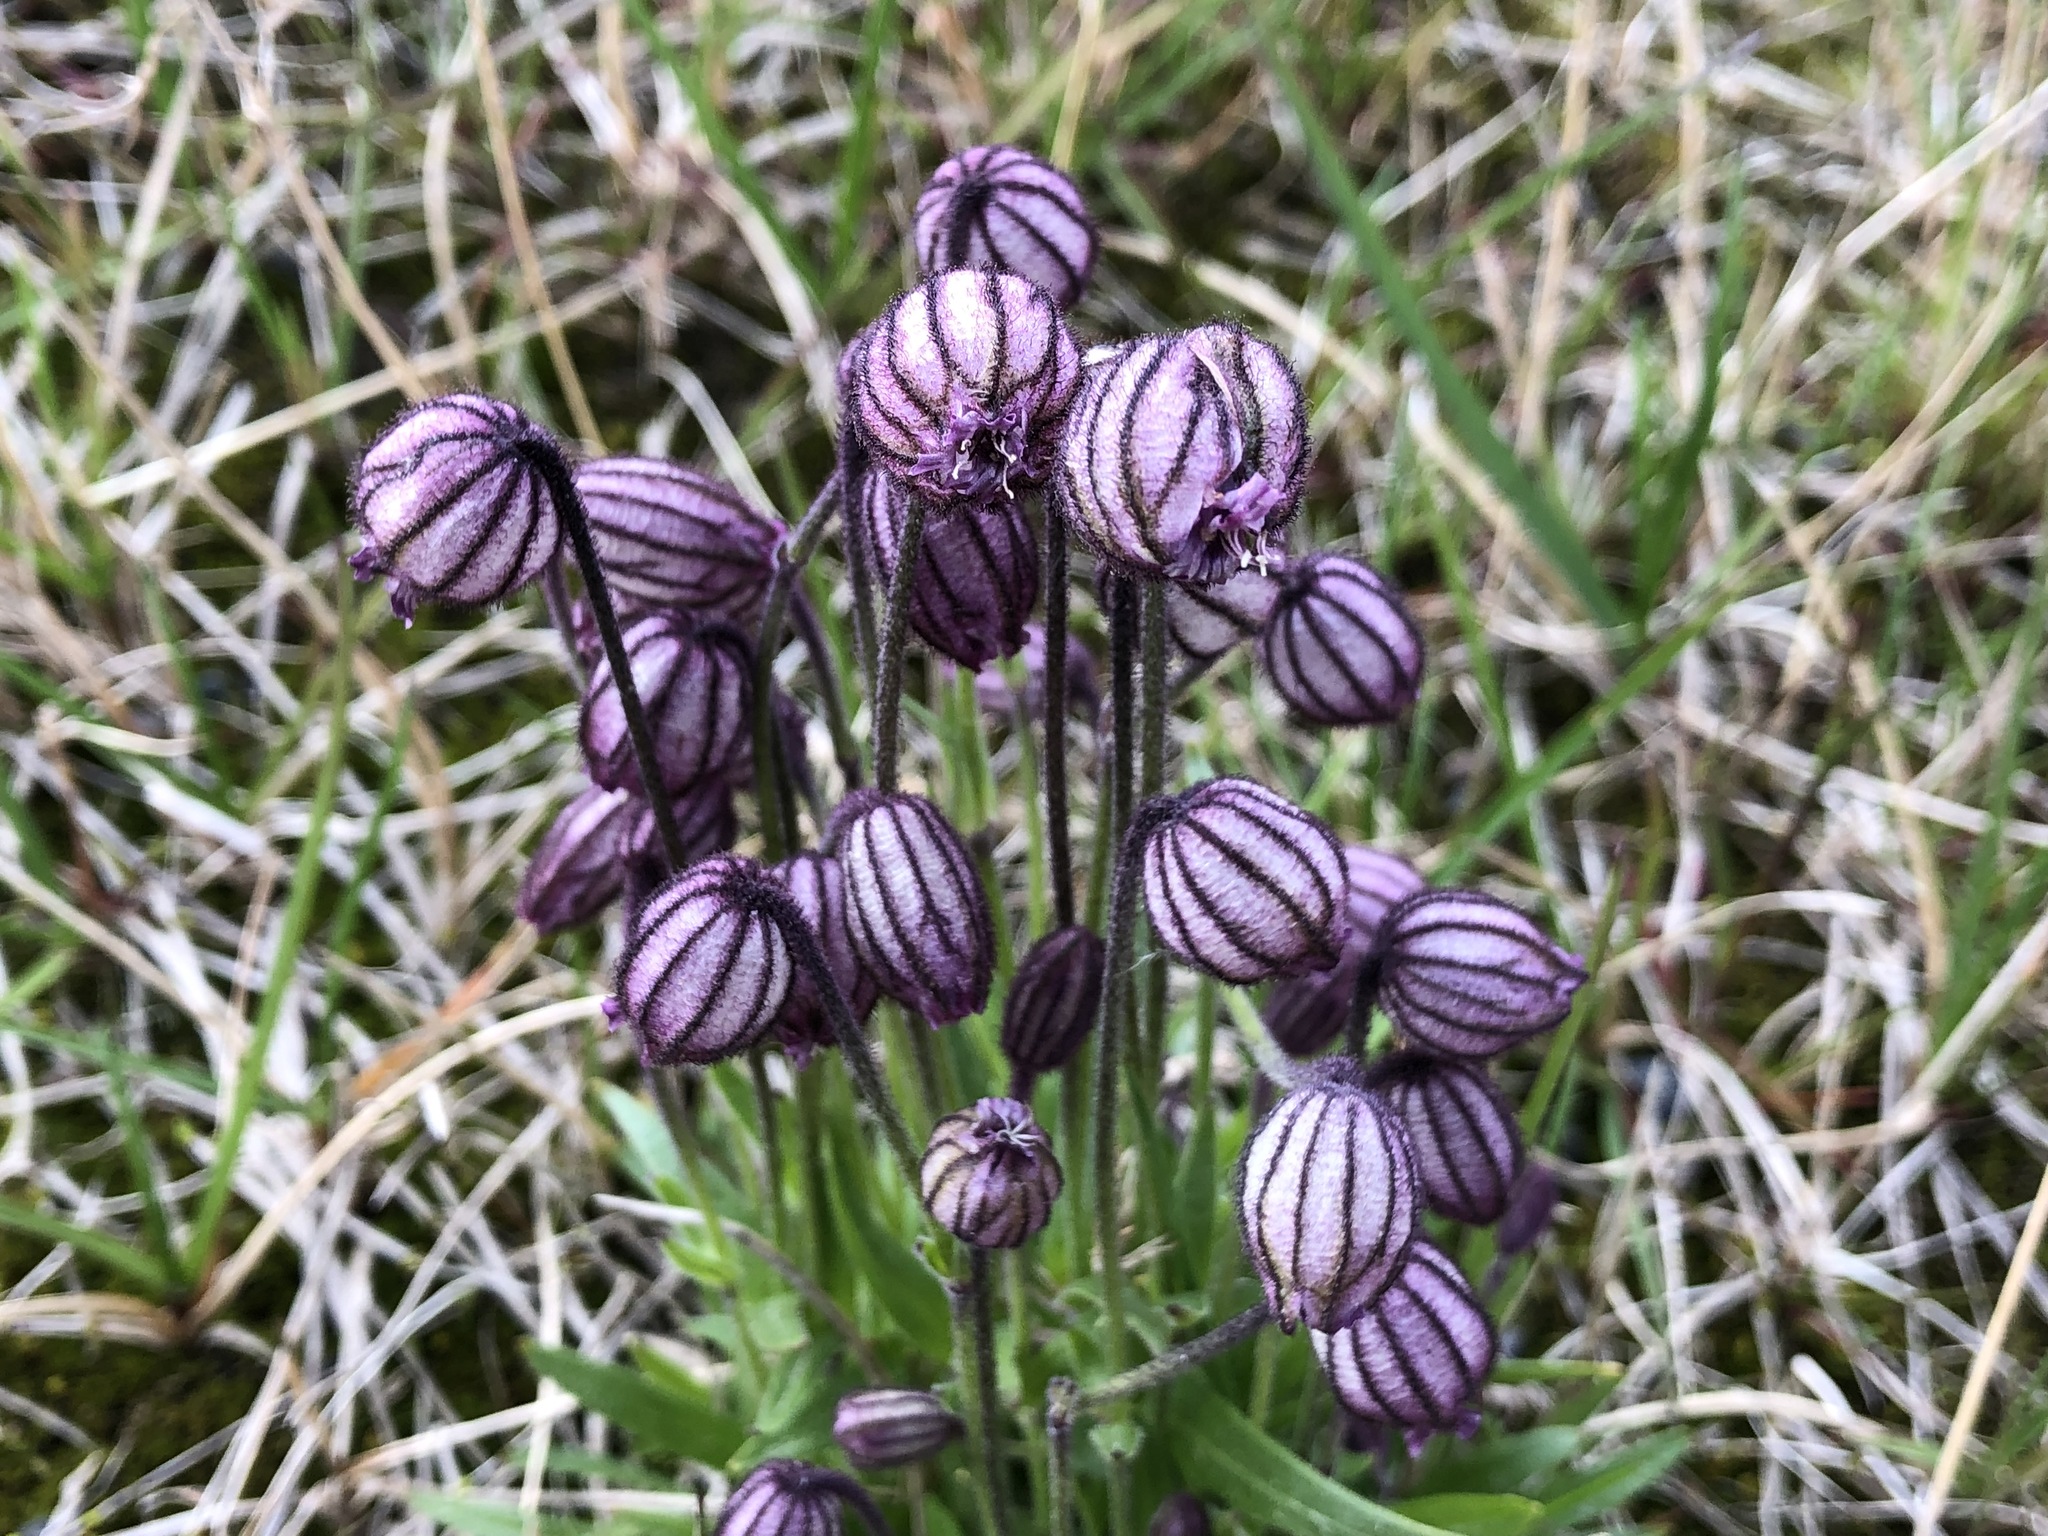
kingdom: Plantae
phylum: Tracheophyta
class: Magnoliopsida
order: Caryophyllales
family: Caryophyllaceae
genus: Silene
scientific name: Silene uralensis
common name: Nodding campion
